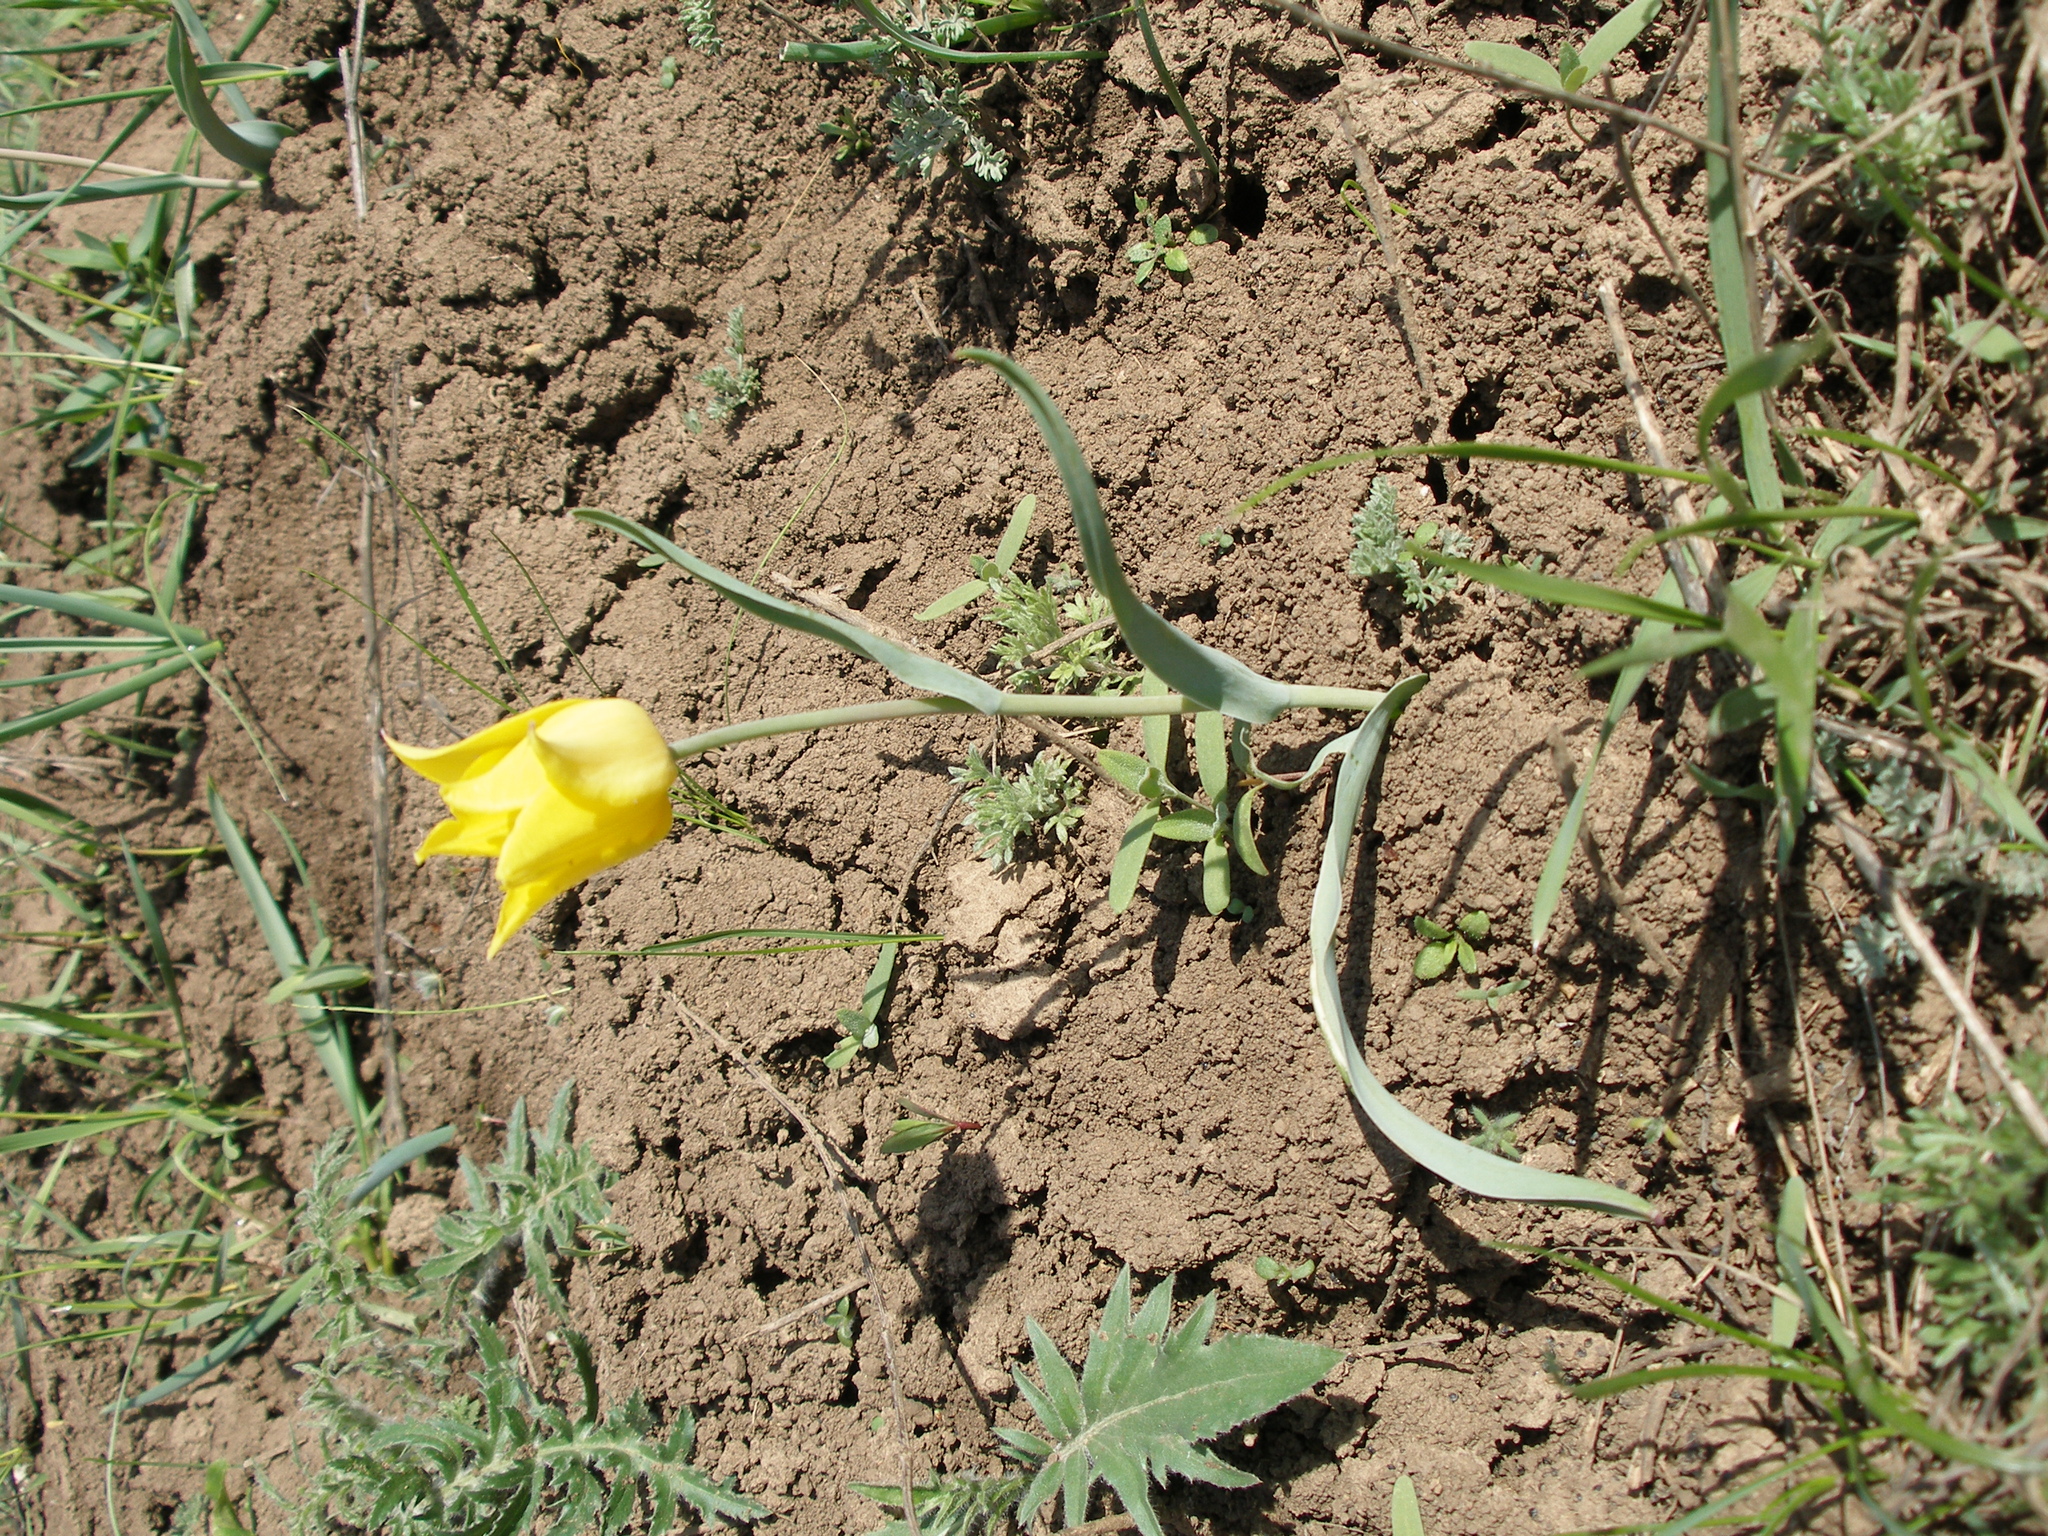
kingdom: Plantae
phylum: Tracheophyta
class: Liliopsida
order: Liliales
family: Liliaceae
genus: Tulipa
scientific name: Tulipa suaveolens
